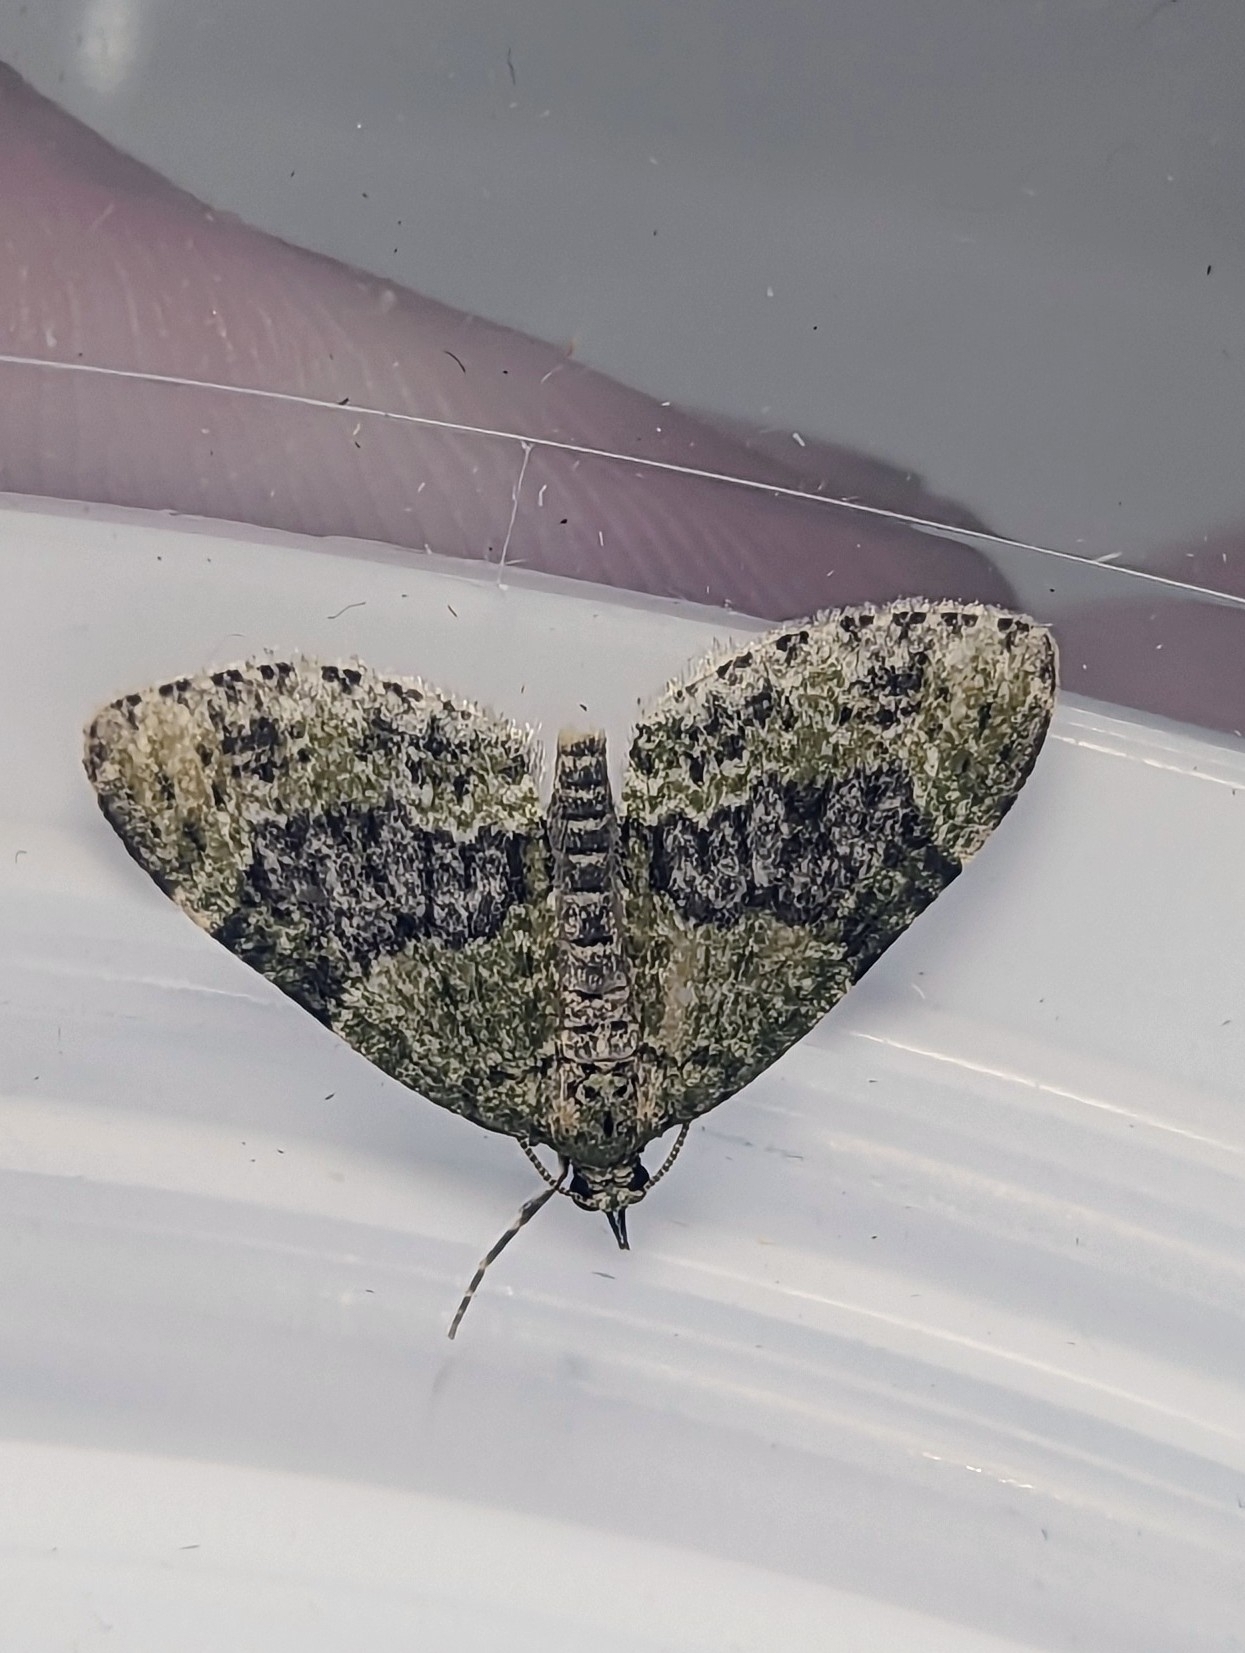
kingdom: Animalia
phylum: Arthropoda
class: Insecta
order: Lepidoptera
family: Geometridae
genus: Acasis
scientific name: Acasis viretata
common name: Yellow-barred brindle
